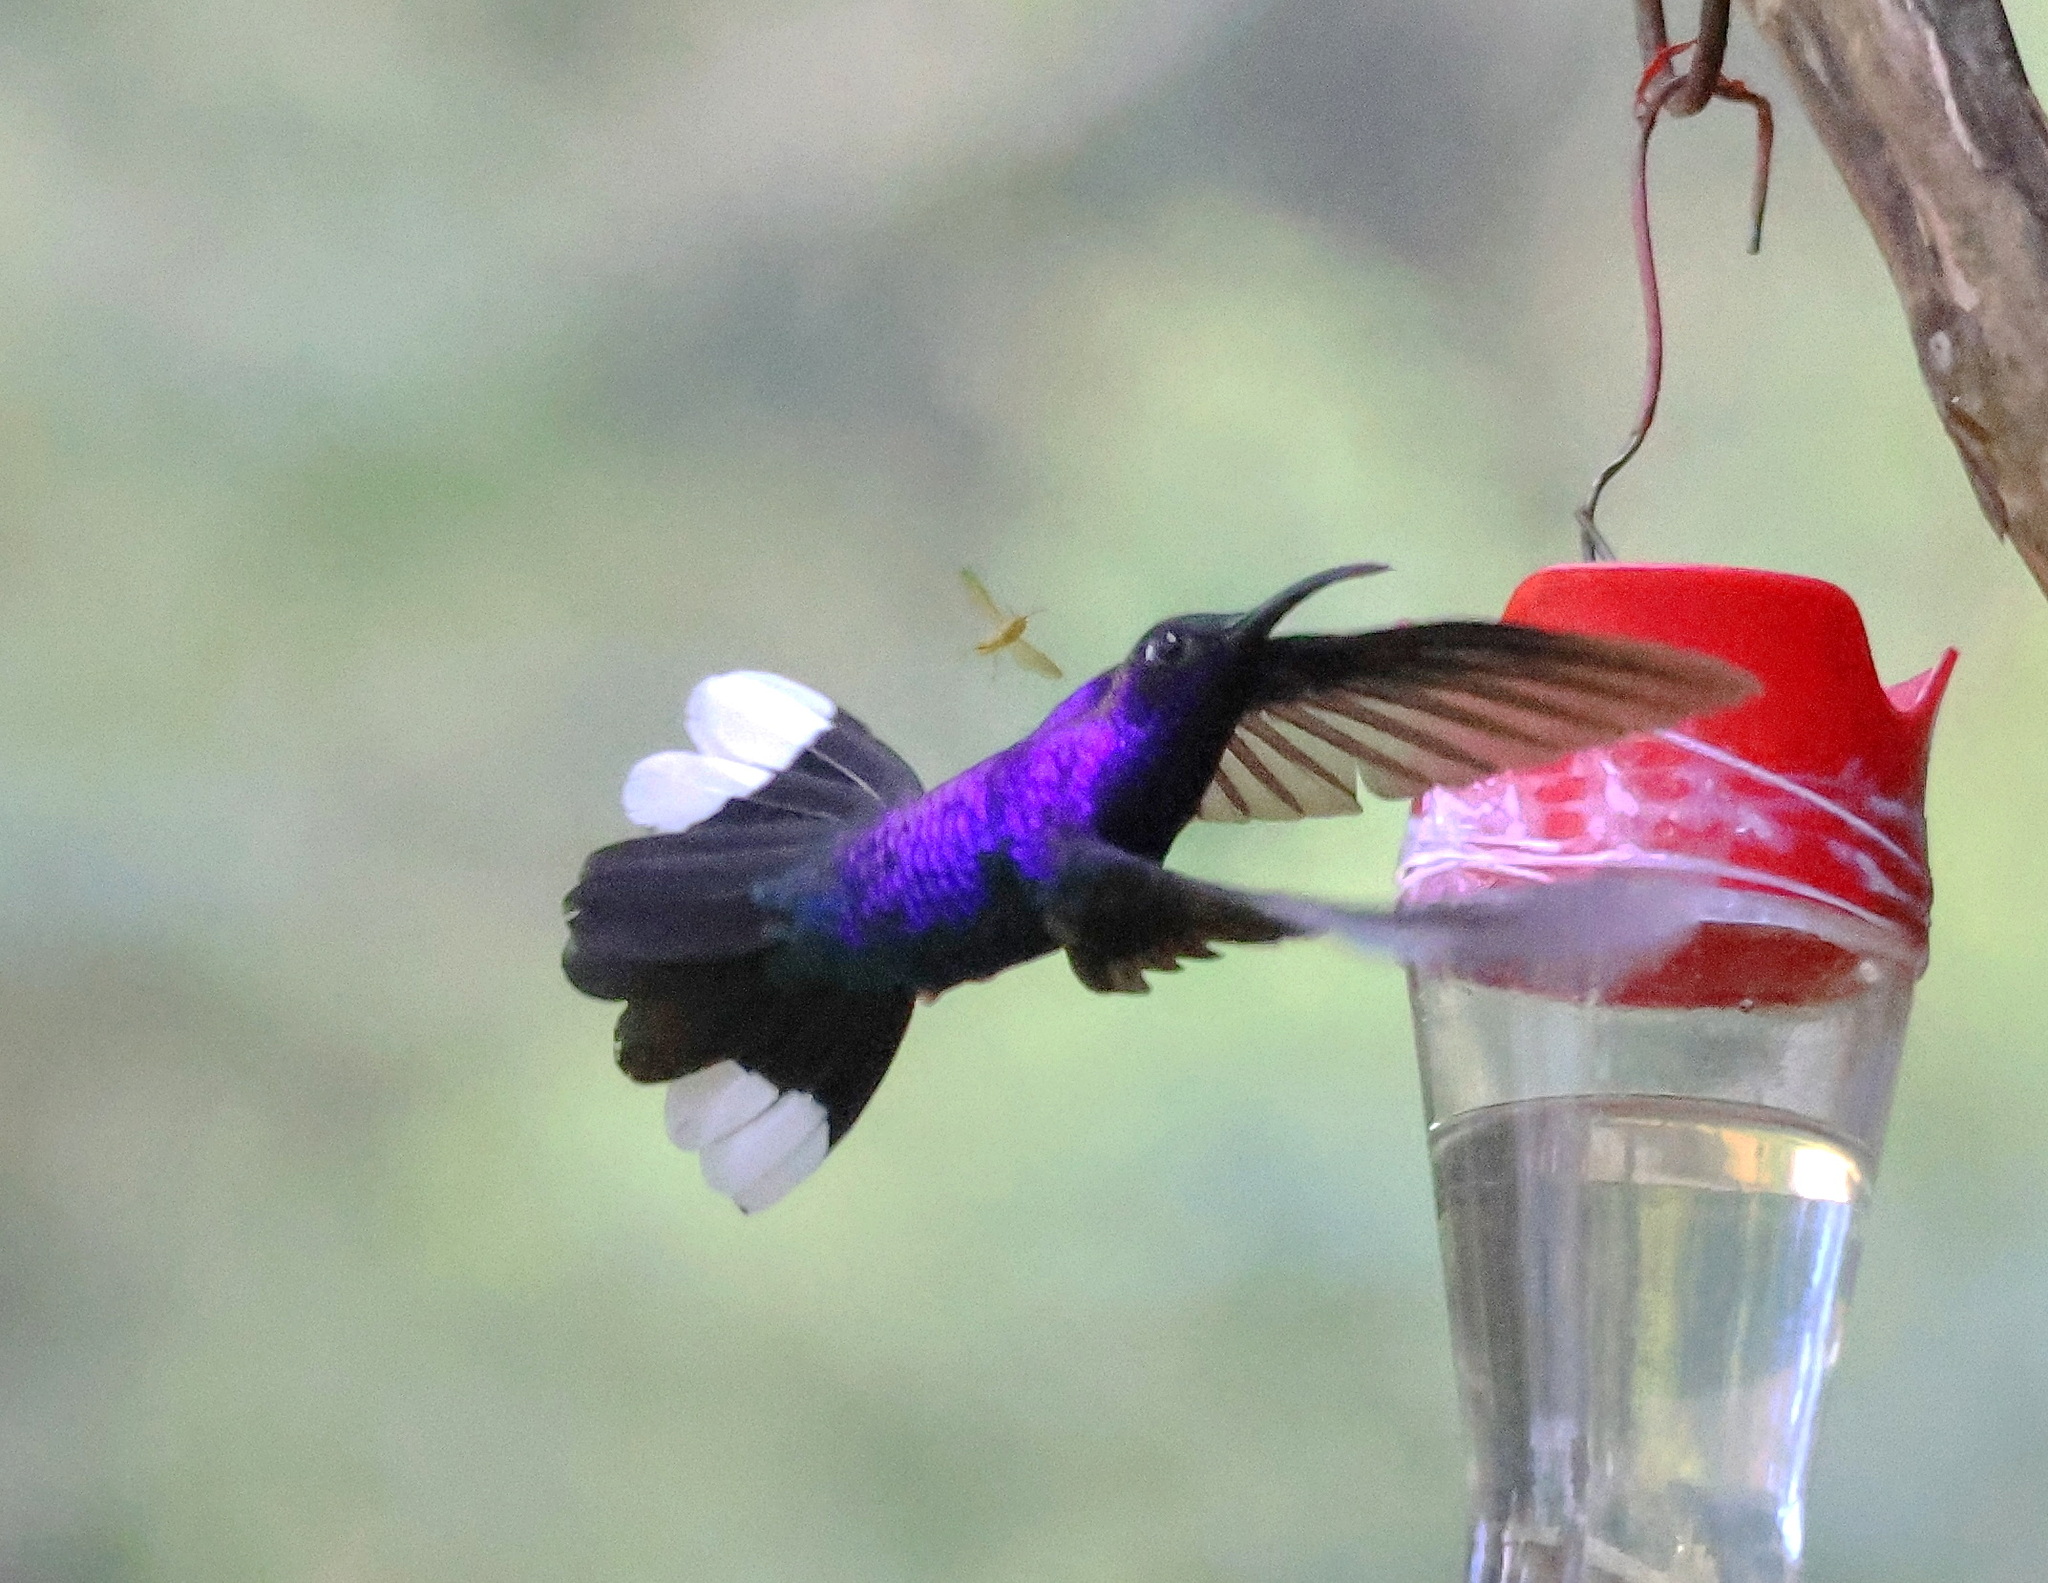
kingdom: Animalia
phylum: Chordata
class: Aves
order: Apodiformes
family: Trochilidae
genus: Campylopterus
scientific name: Campylopterus hemileucurus
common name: Violet sabrewing
